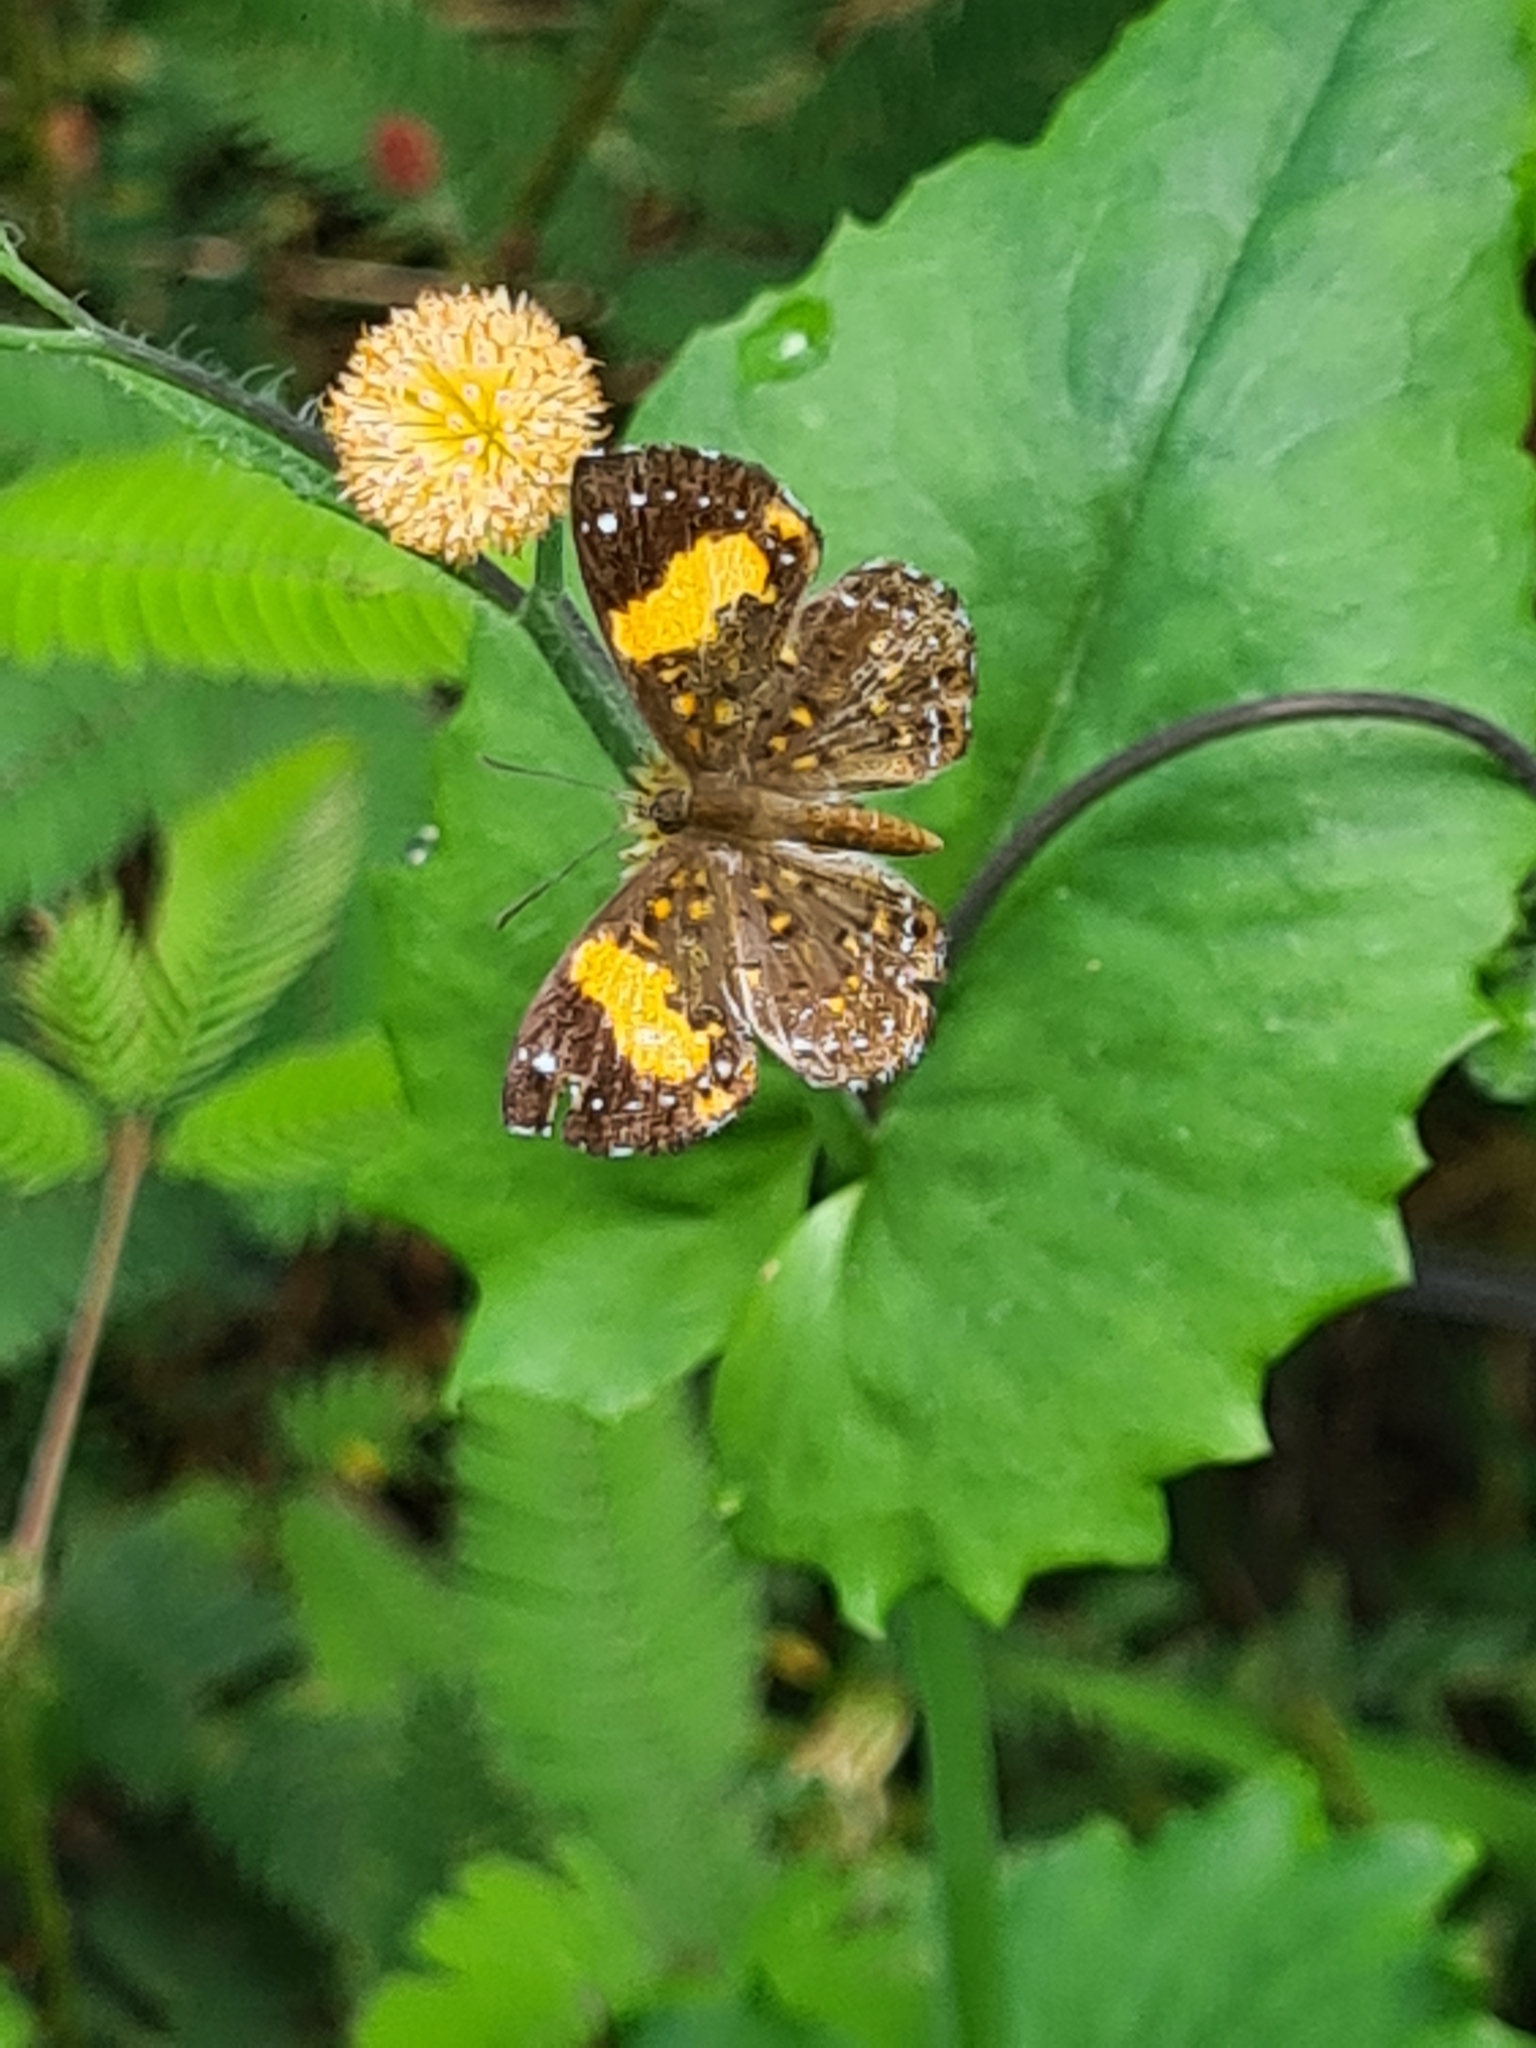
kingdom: Animalia
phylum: Arthropoda
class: Insecta
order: Lepidoptera
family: Riodinidae
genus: Polystichtis
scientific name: Polystichtis emylius
